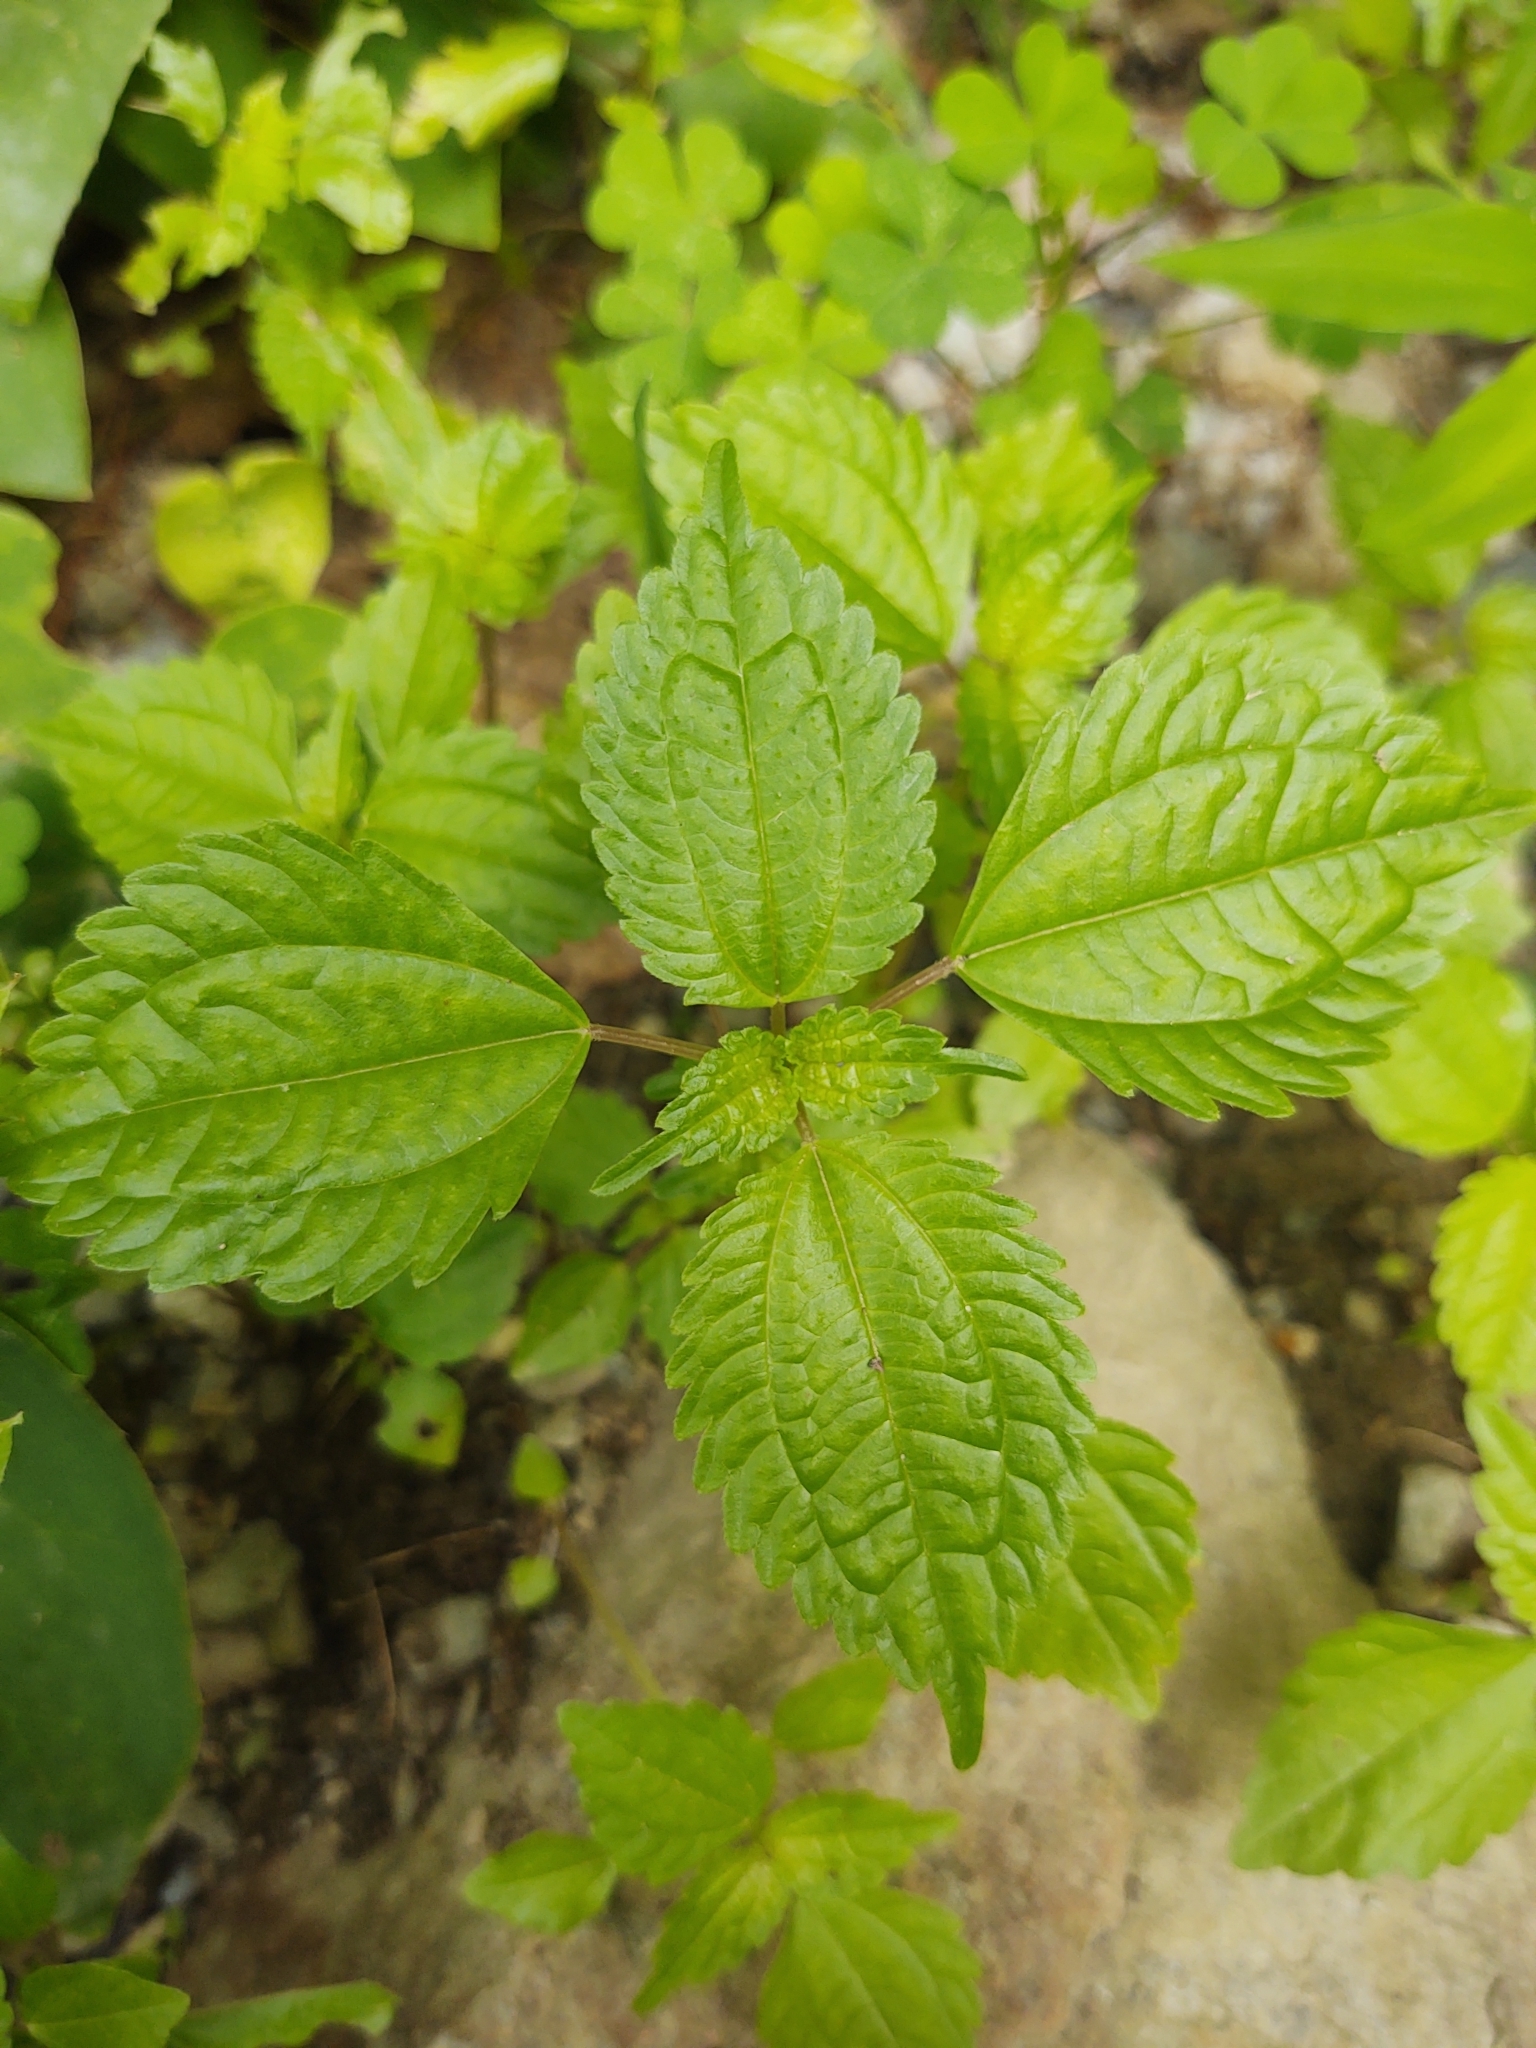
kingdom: Plantae
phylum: Tracheophyta
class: Magnoliopsida
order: Rosales
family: Urticaceae
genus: Pilea
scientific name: Pilea pumila
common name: Clearweed
